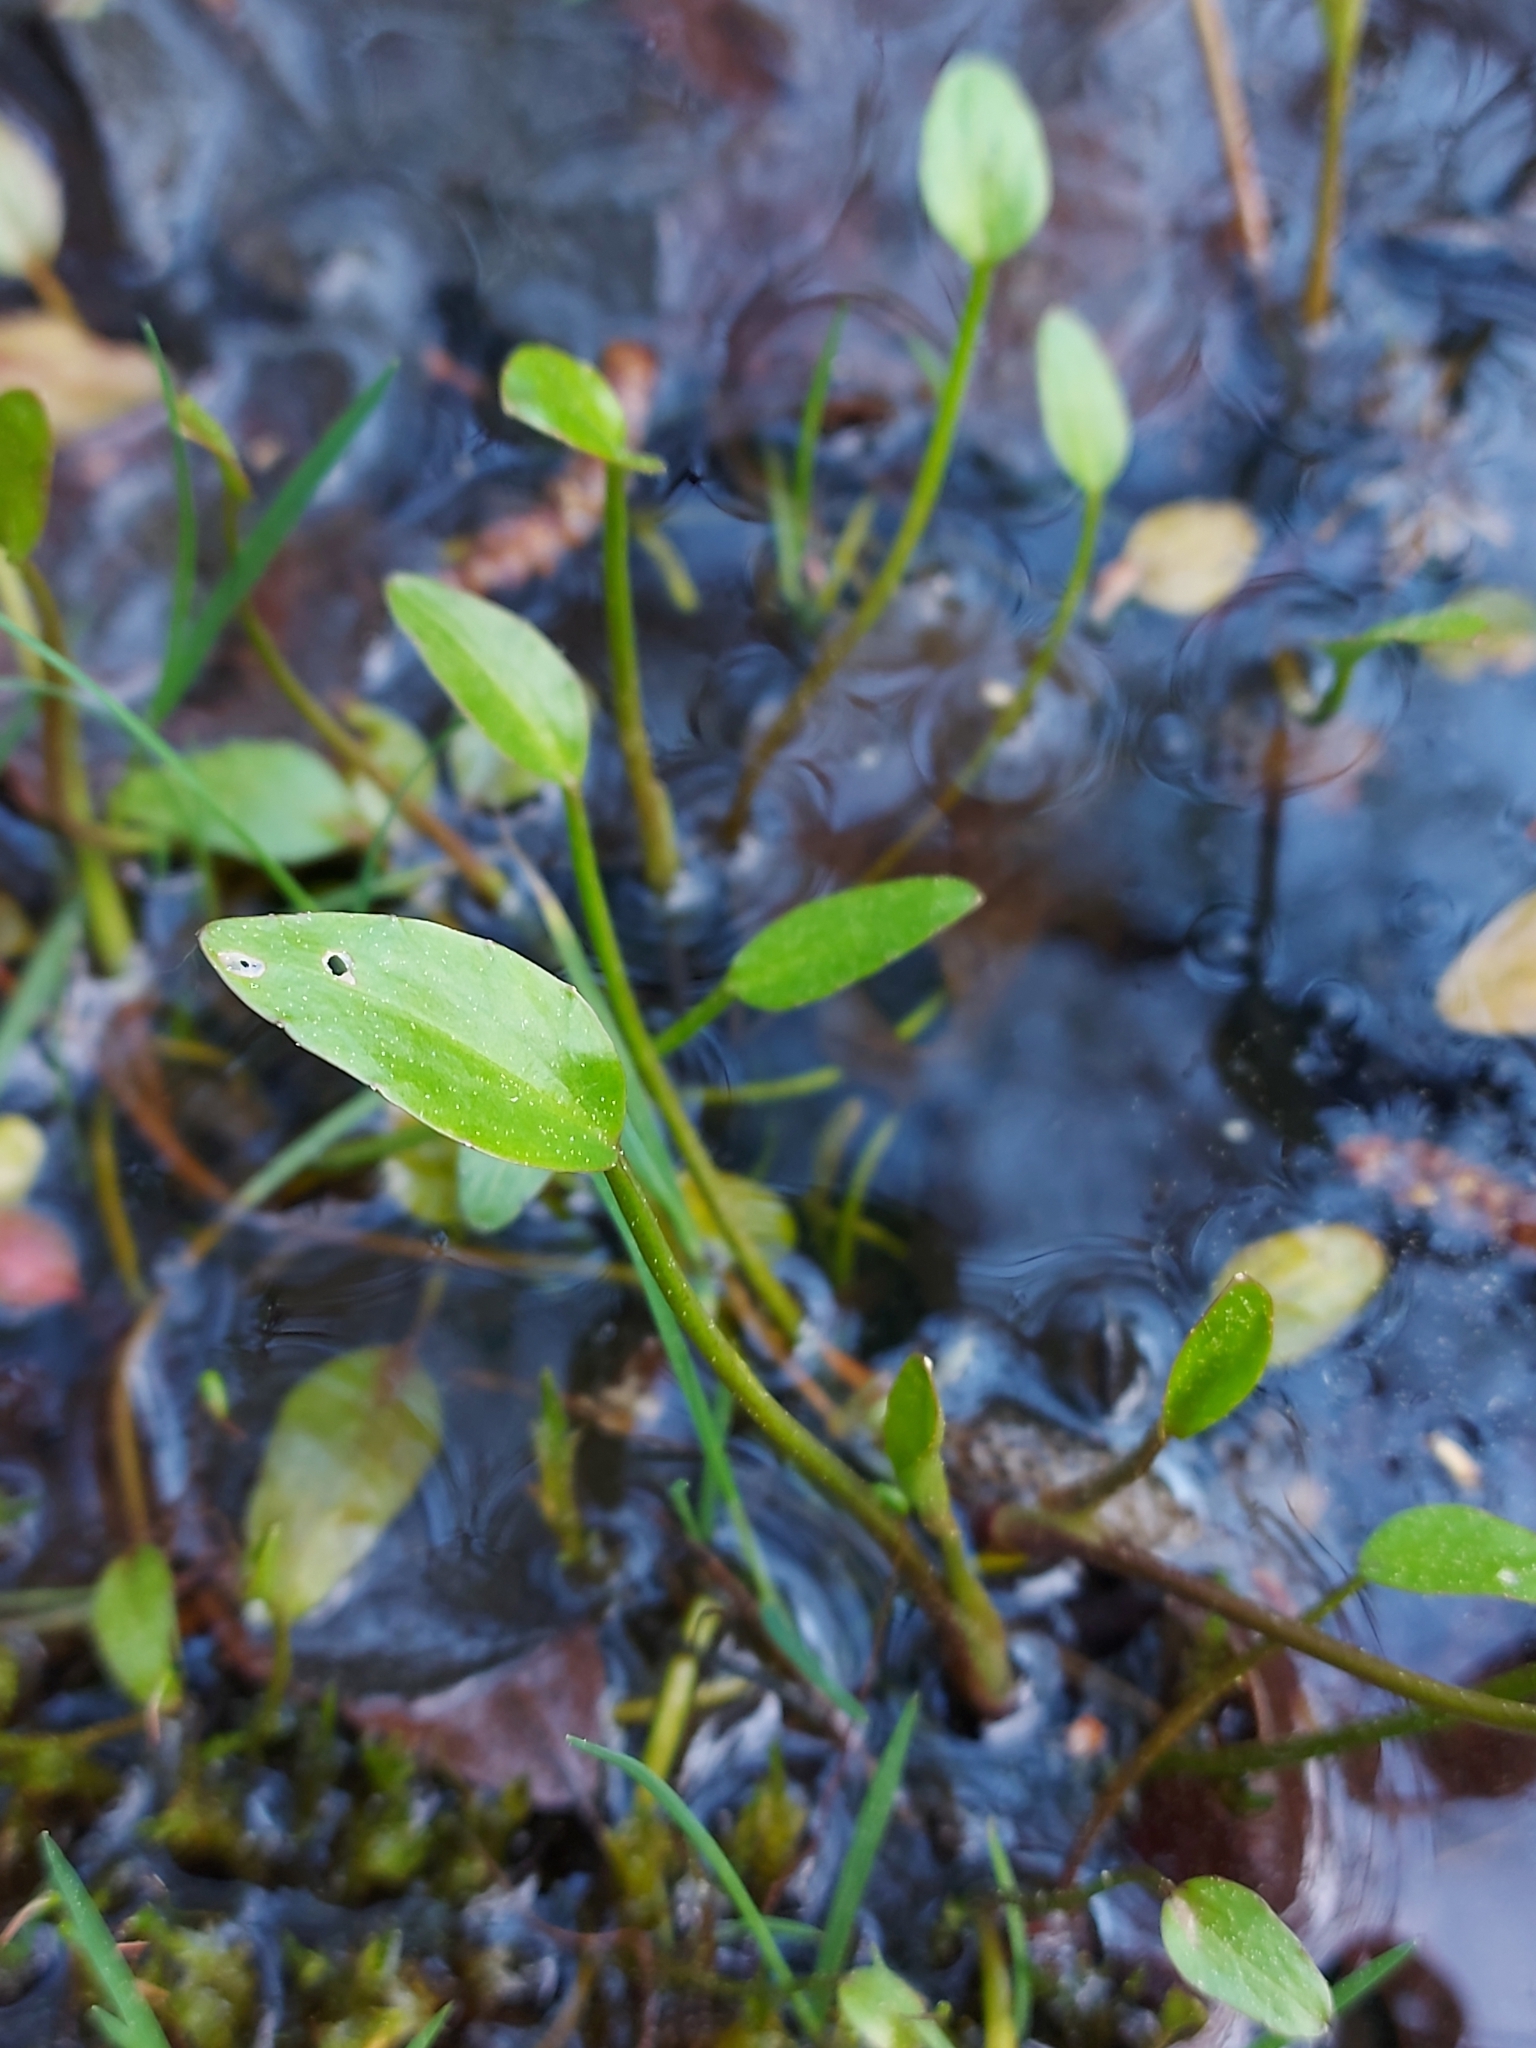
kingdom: Plantae
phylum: Tracheophyta
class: Liliopsida
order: Alismatales
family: Alismataceae
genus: Alisma
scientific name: Alisma plantago-aquatica
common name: Water-plantain
